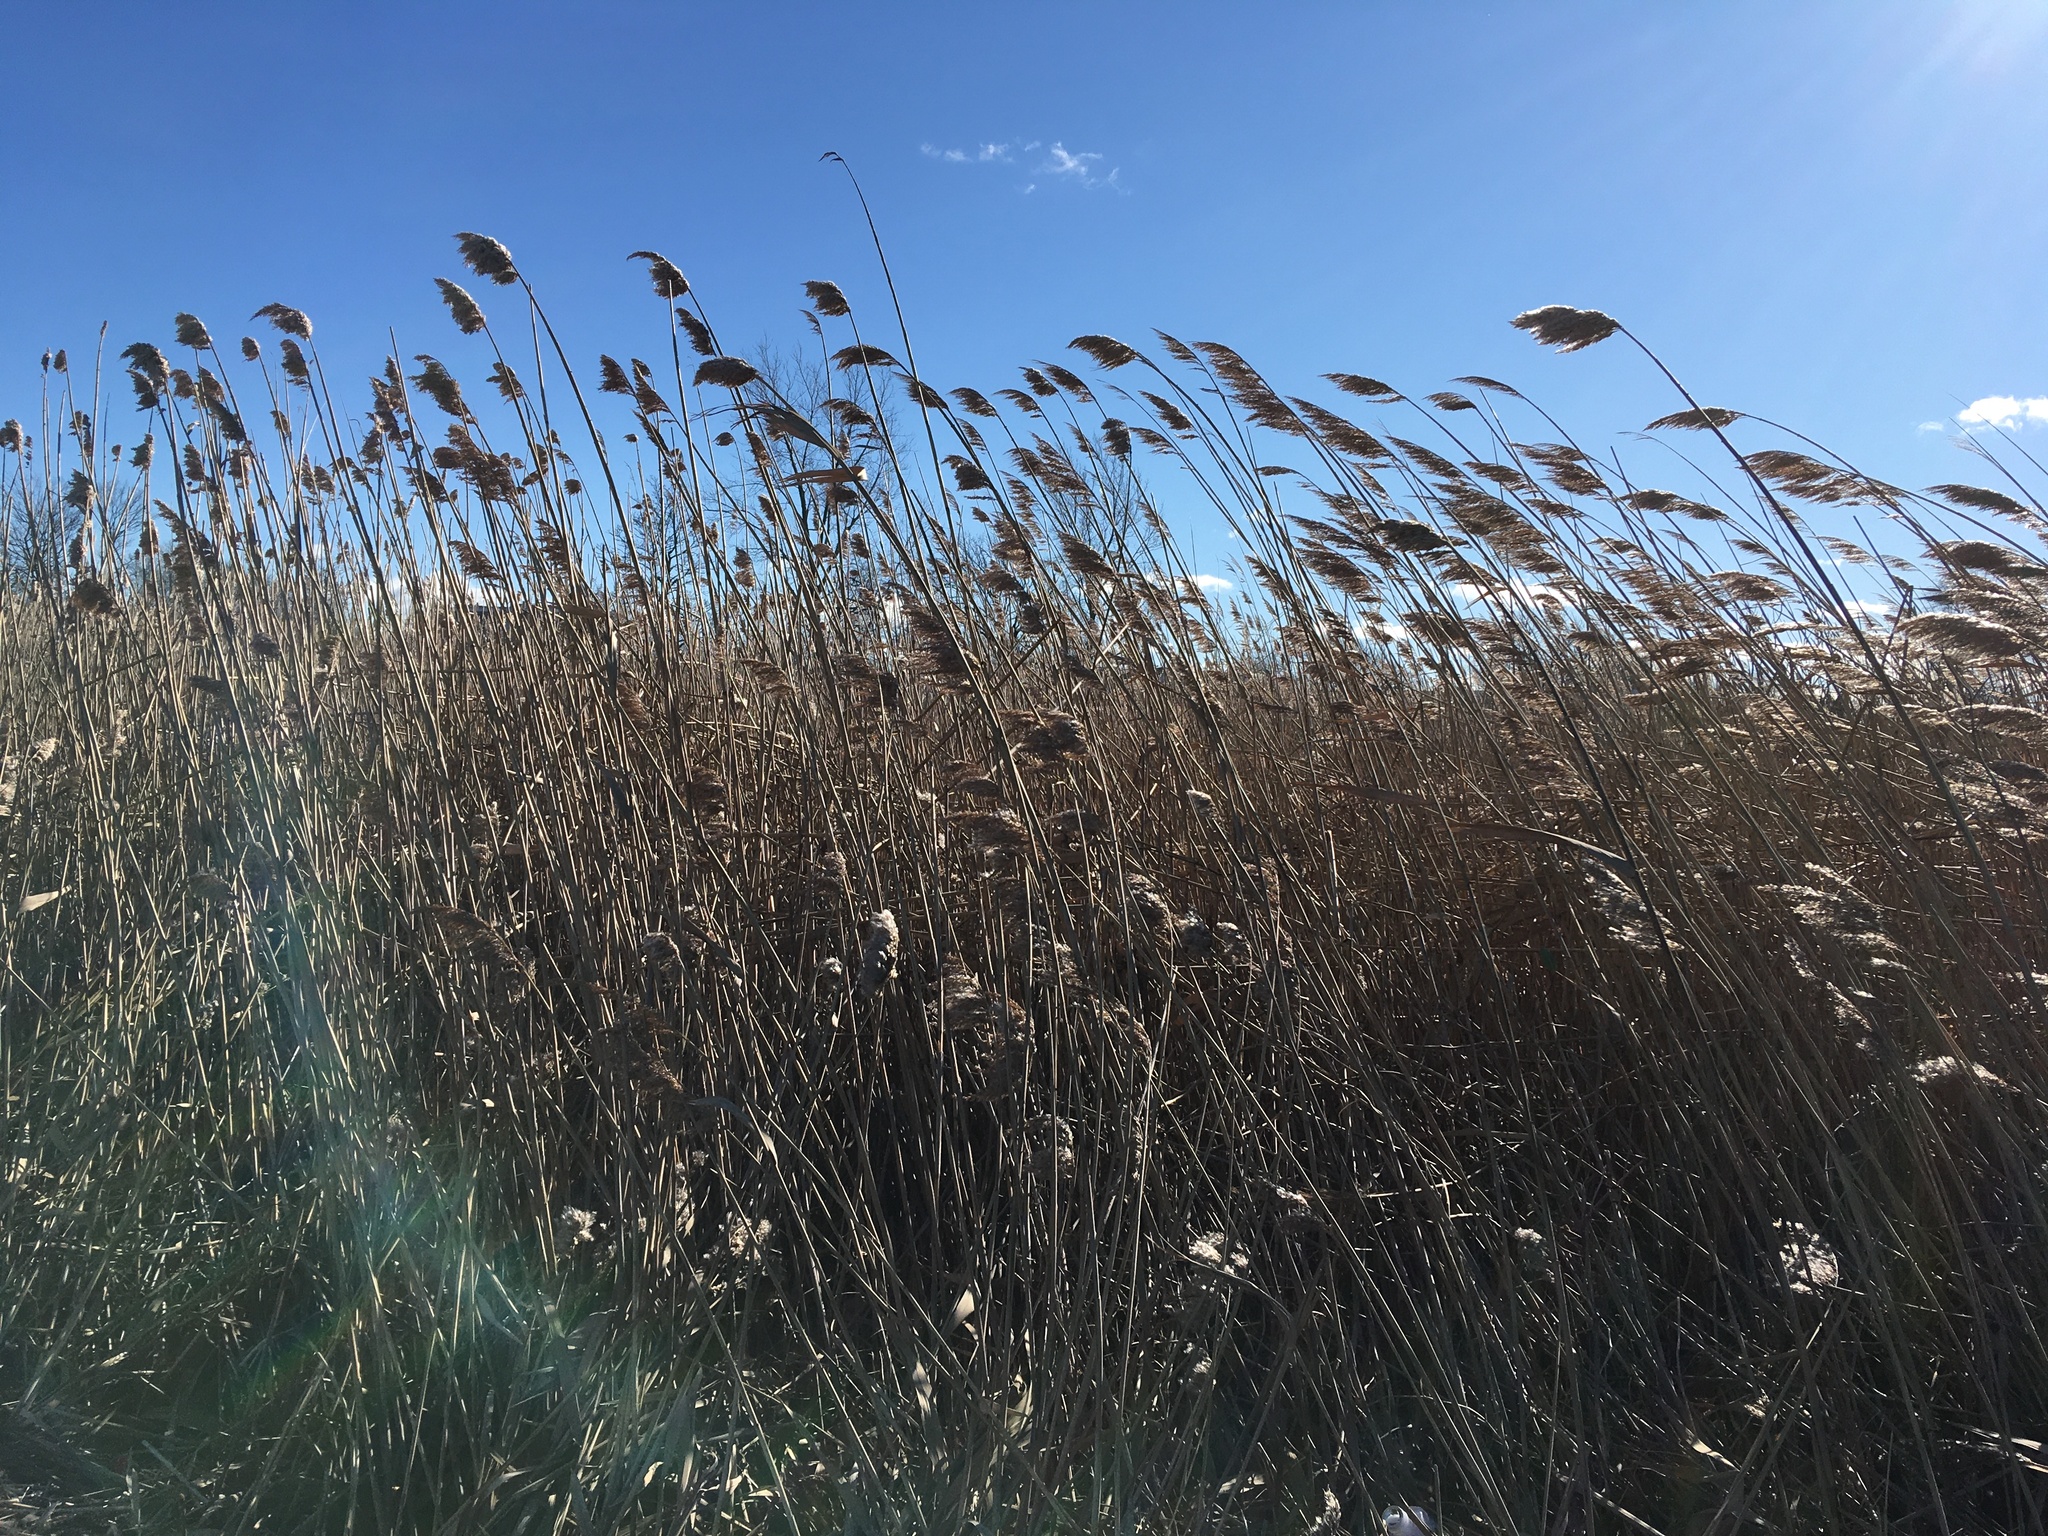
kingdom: Plantae
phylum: Tracheophyta
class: Liliopsida
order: Poales
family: Poaceae
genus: Phragmites
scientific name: Phragmites australis
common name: Common reed
